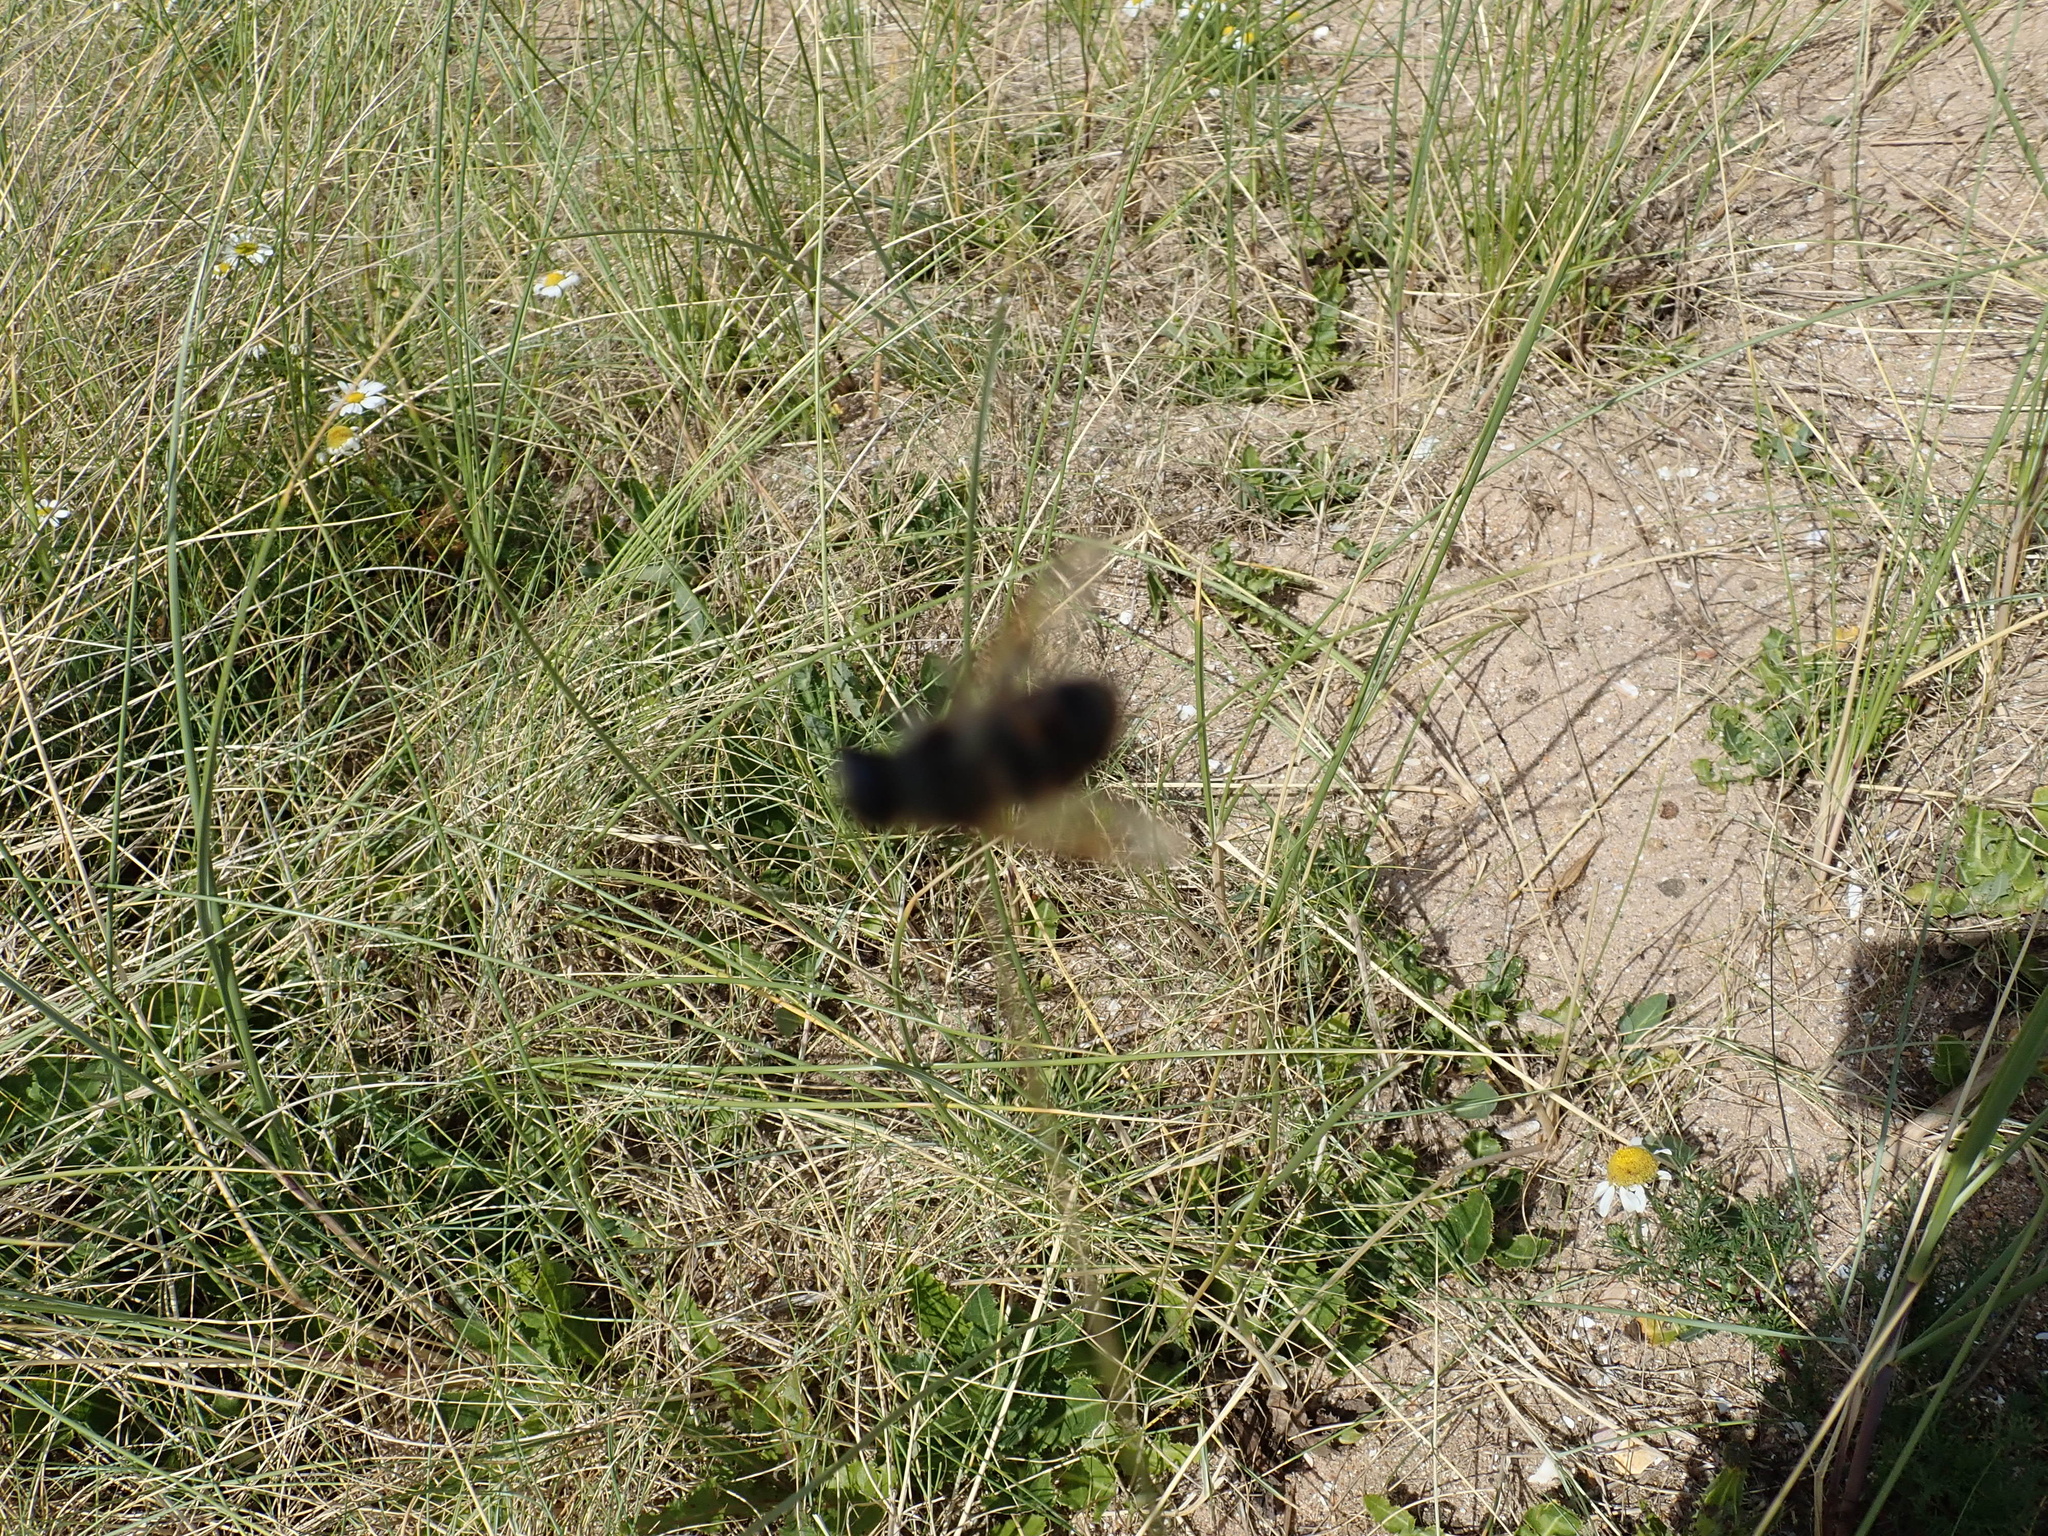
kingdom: Animalia
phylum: Arthropoda
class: Insecta
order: Diptera
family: Syrphidae
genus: Eristalis
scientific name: Eristalis tenax
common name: Drone fly
